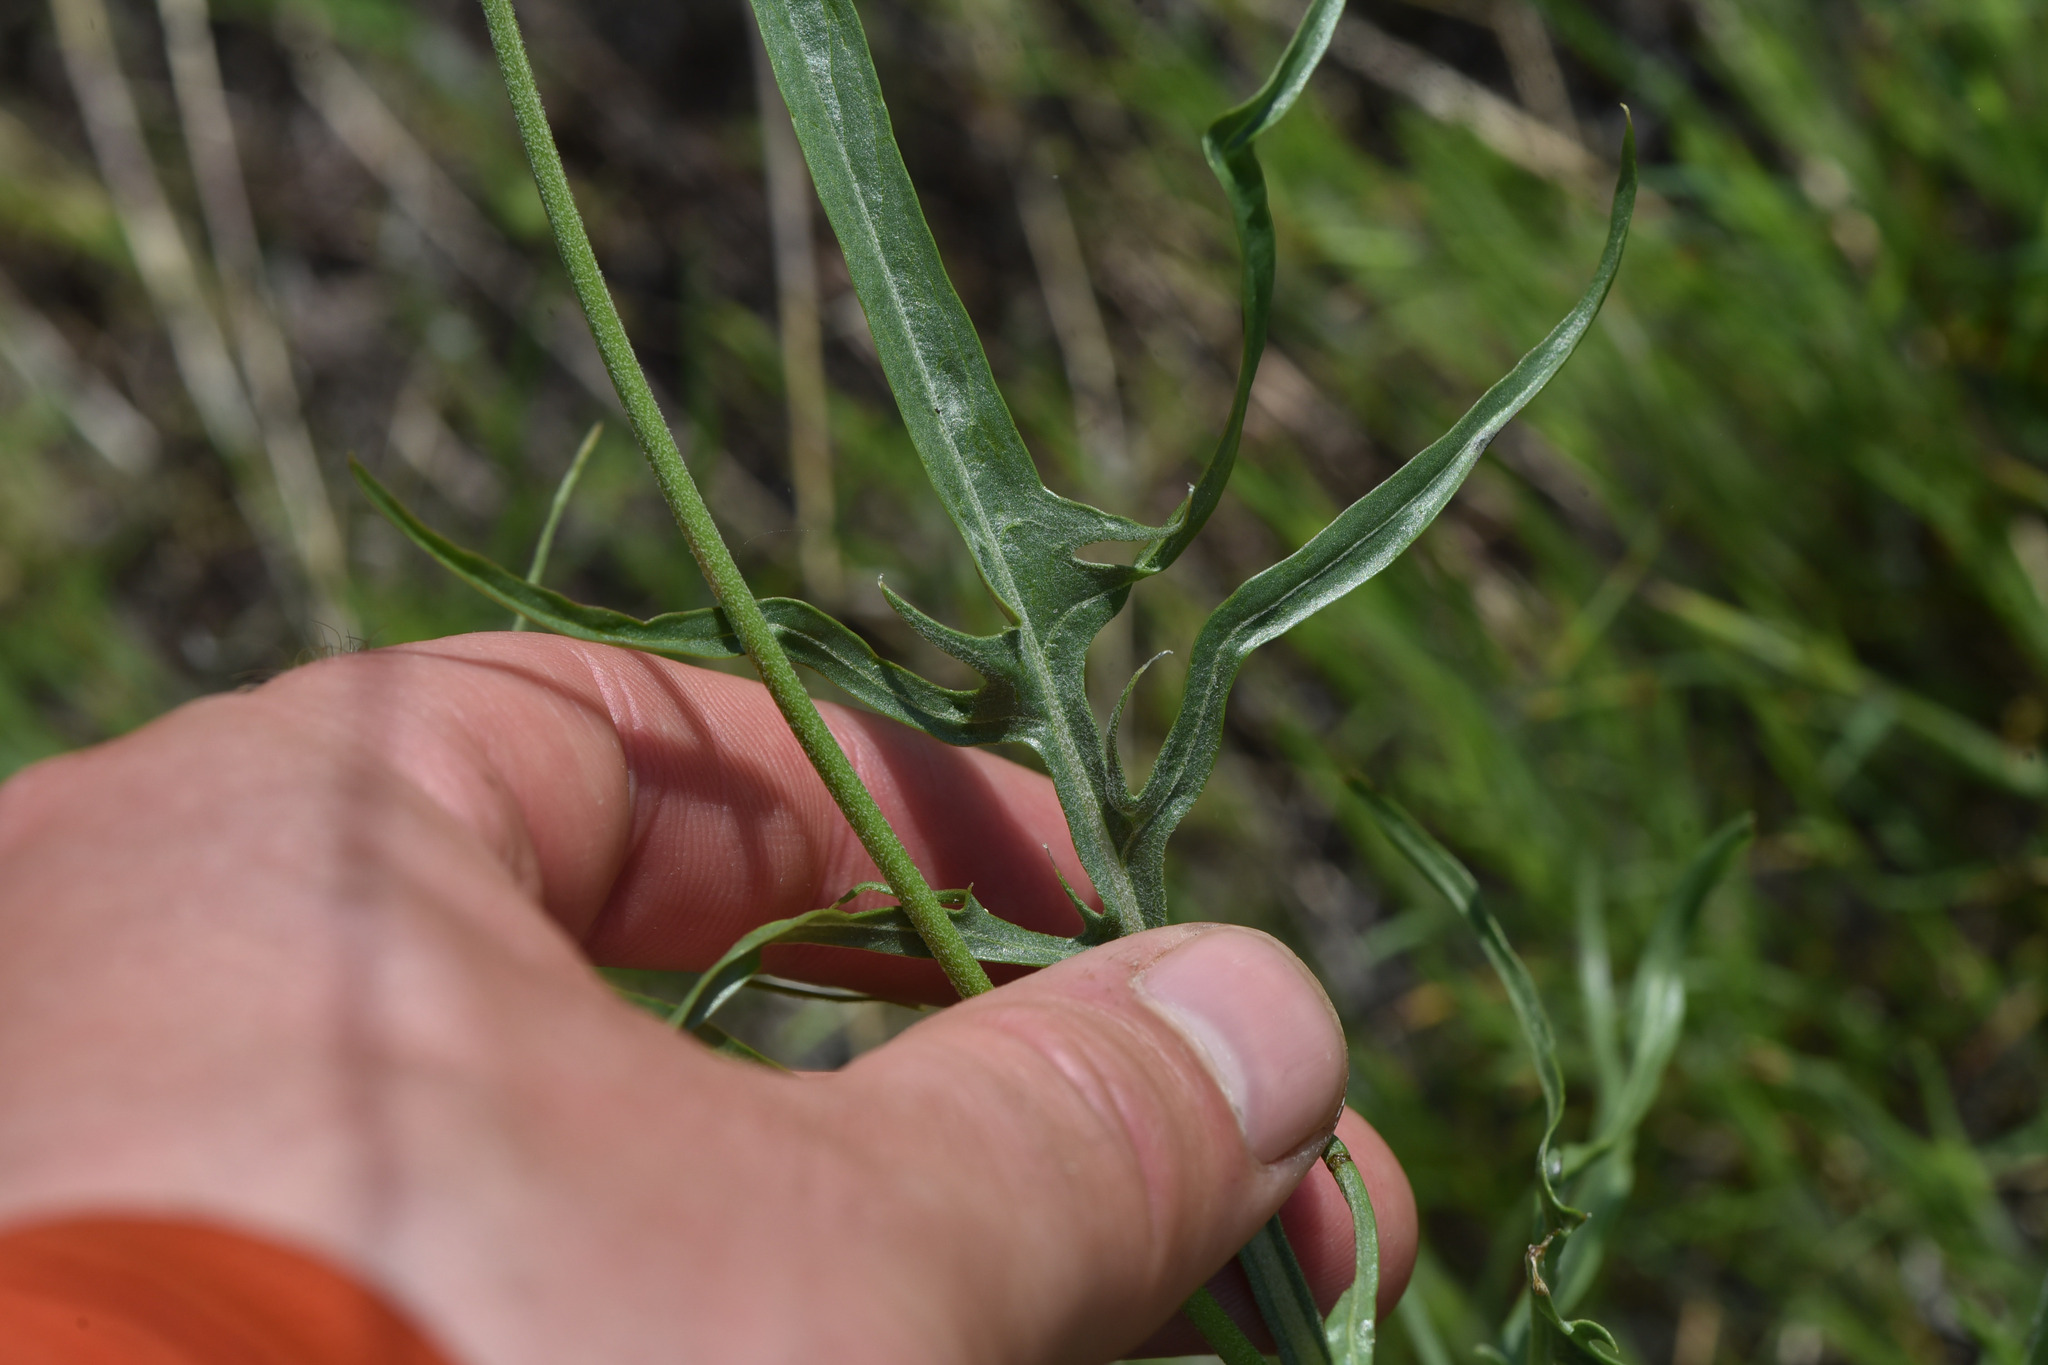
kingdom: Plantae
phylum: Tracheophyta
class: Magnoliopsida
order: Asterales
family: Asteraceae
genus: Crepis
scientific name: Crepis atribarba
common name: Dark hawk's-beard
